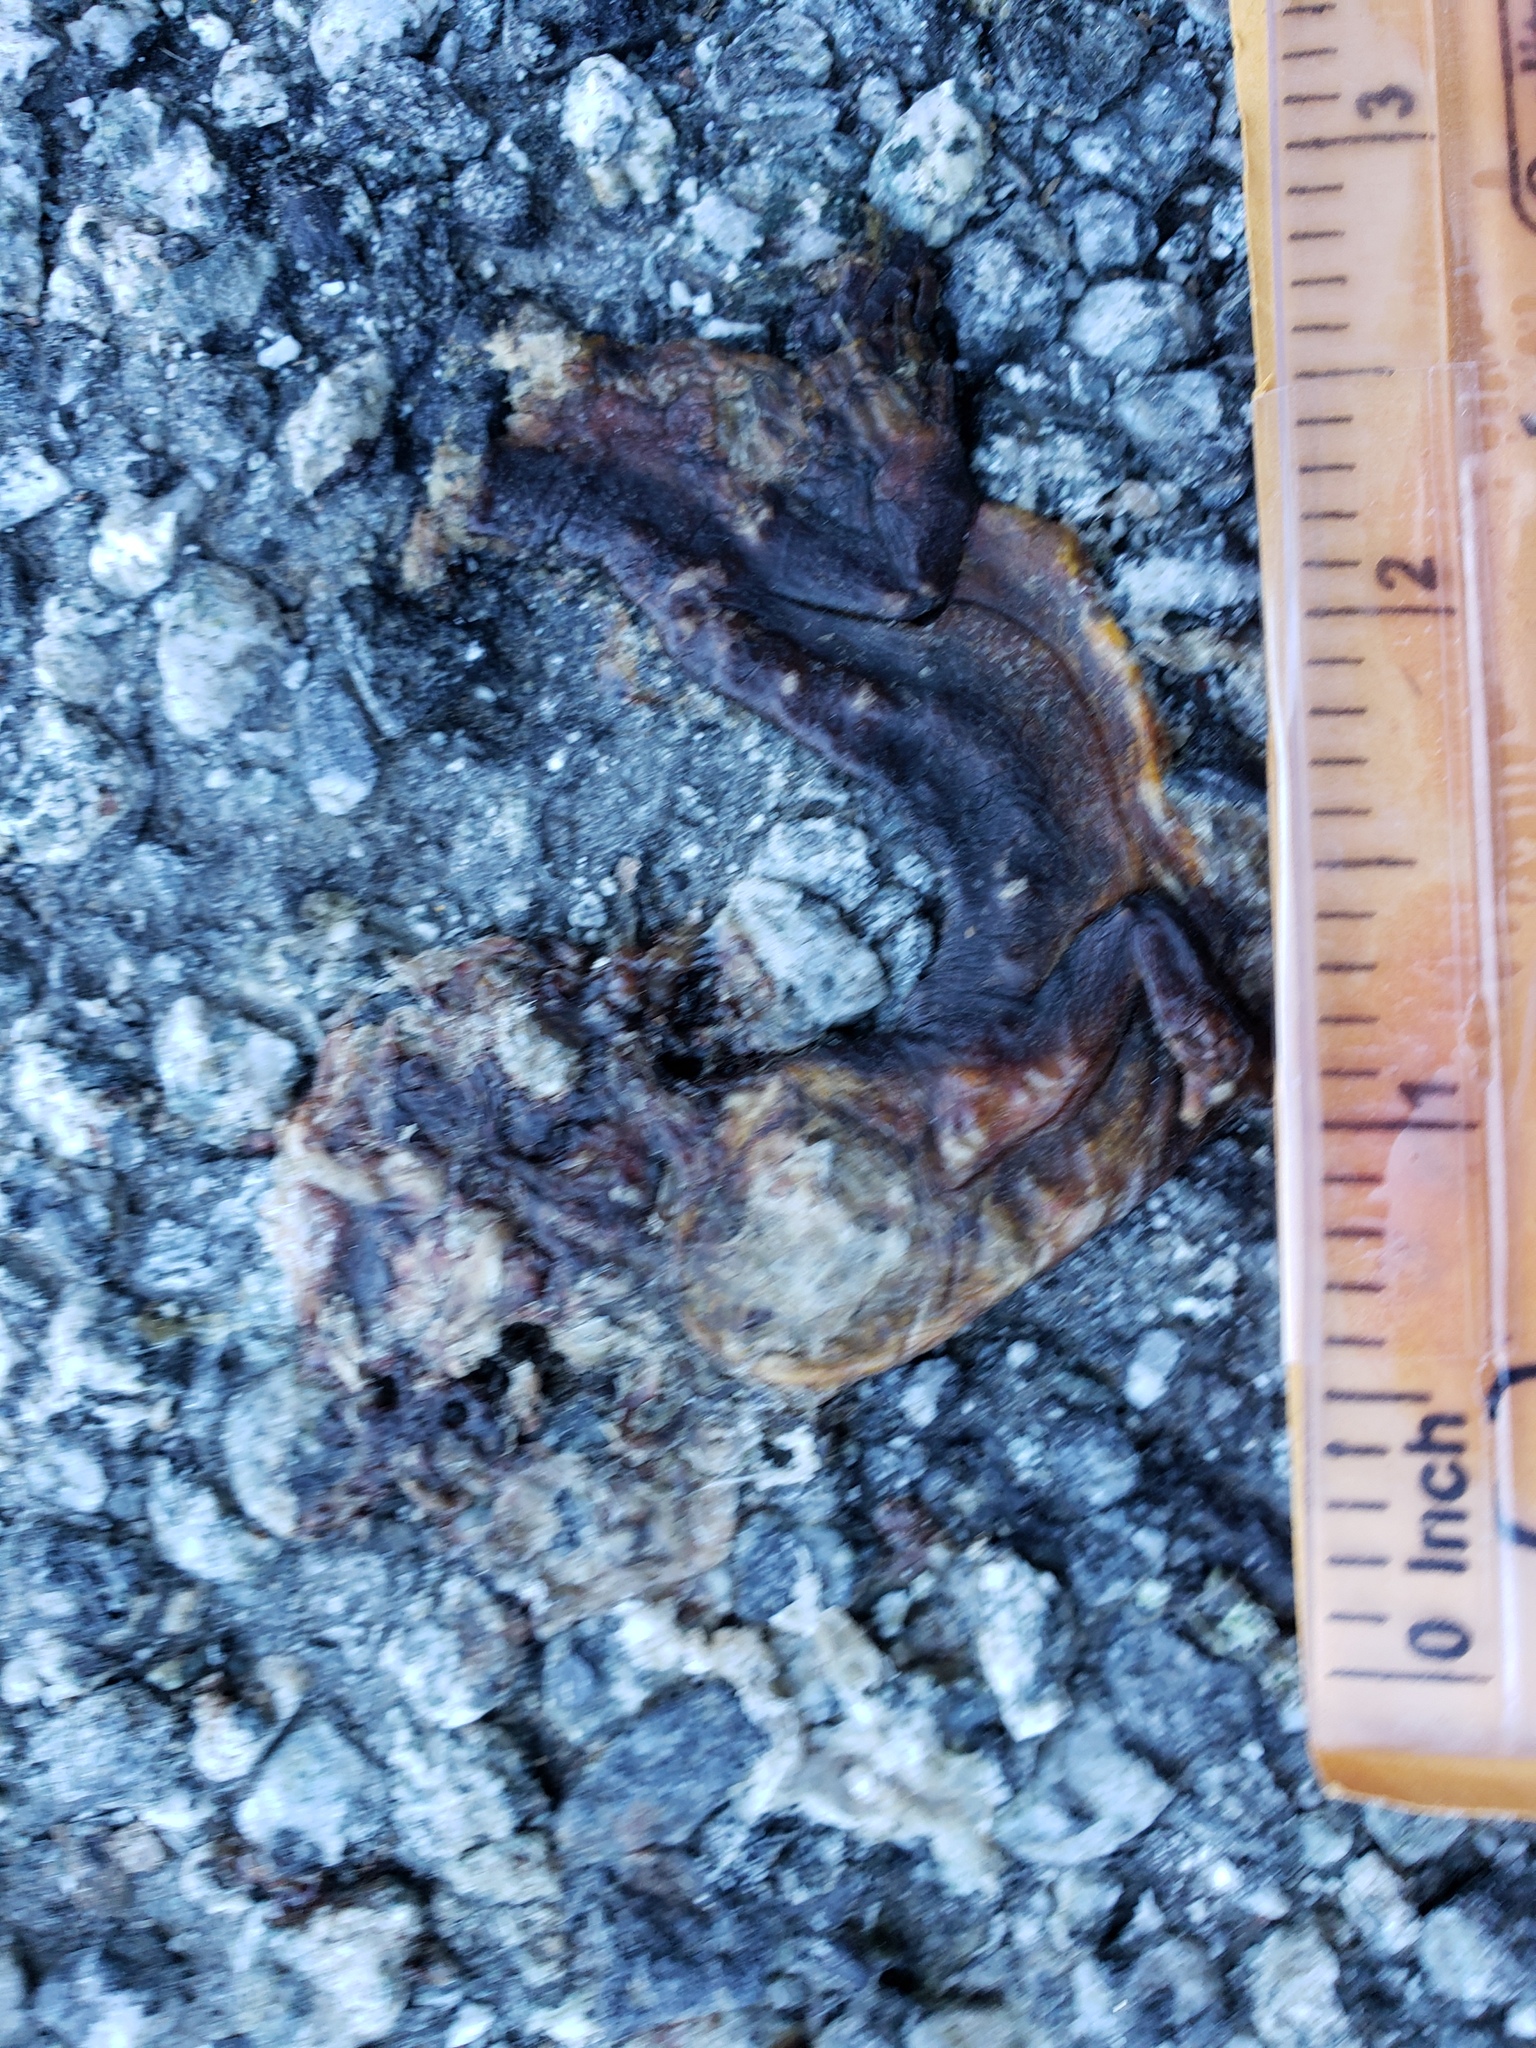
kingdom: Animalia
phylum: Chordata
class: Amphibia
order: Caudata
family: Salamandridae
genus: Taricha
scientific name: Taricha
